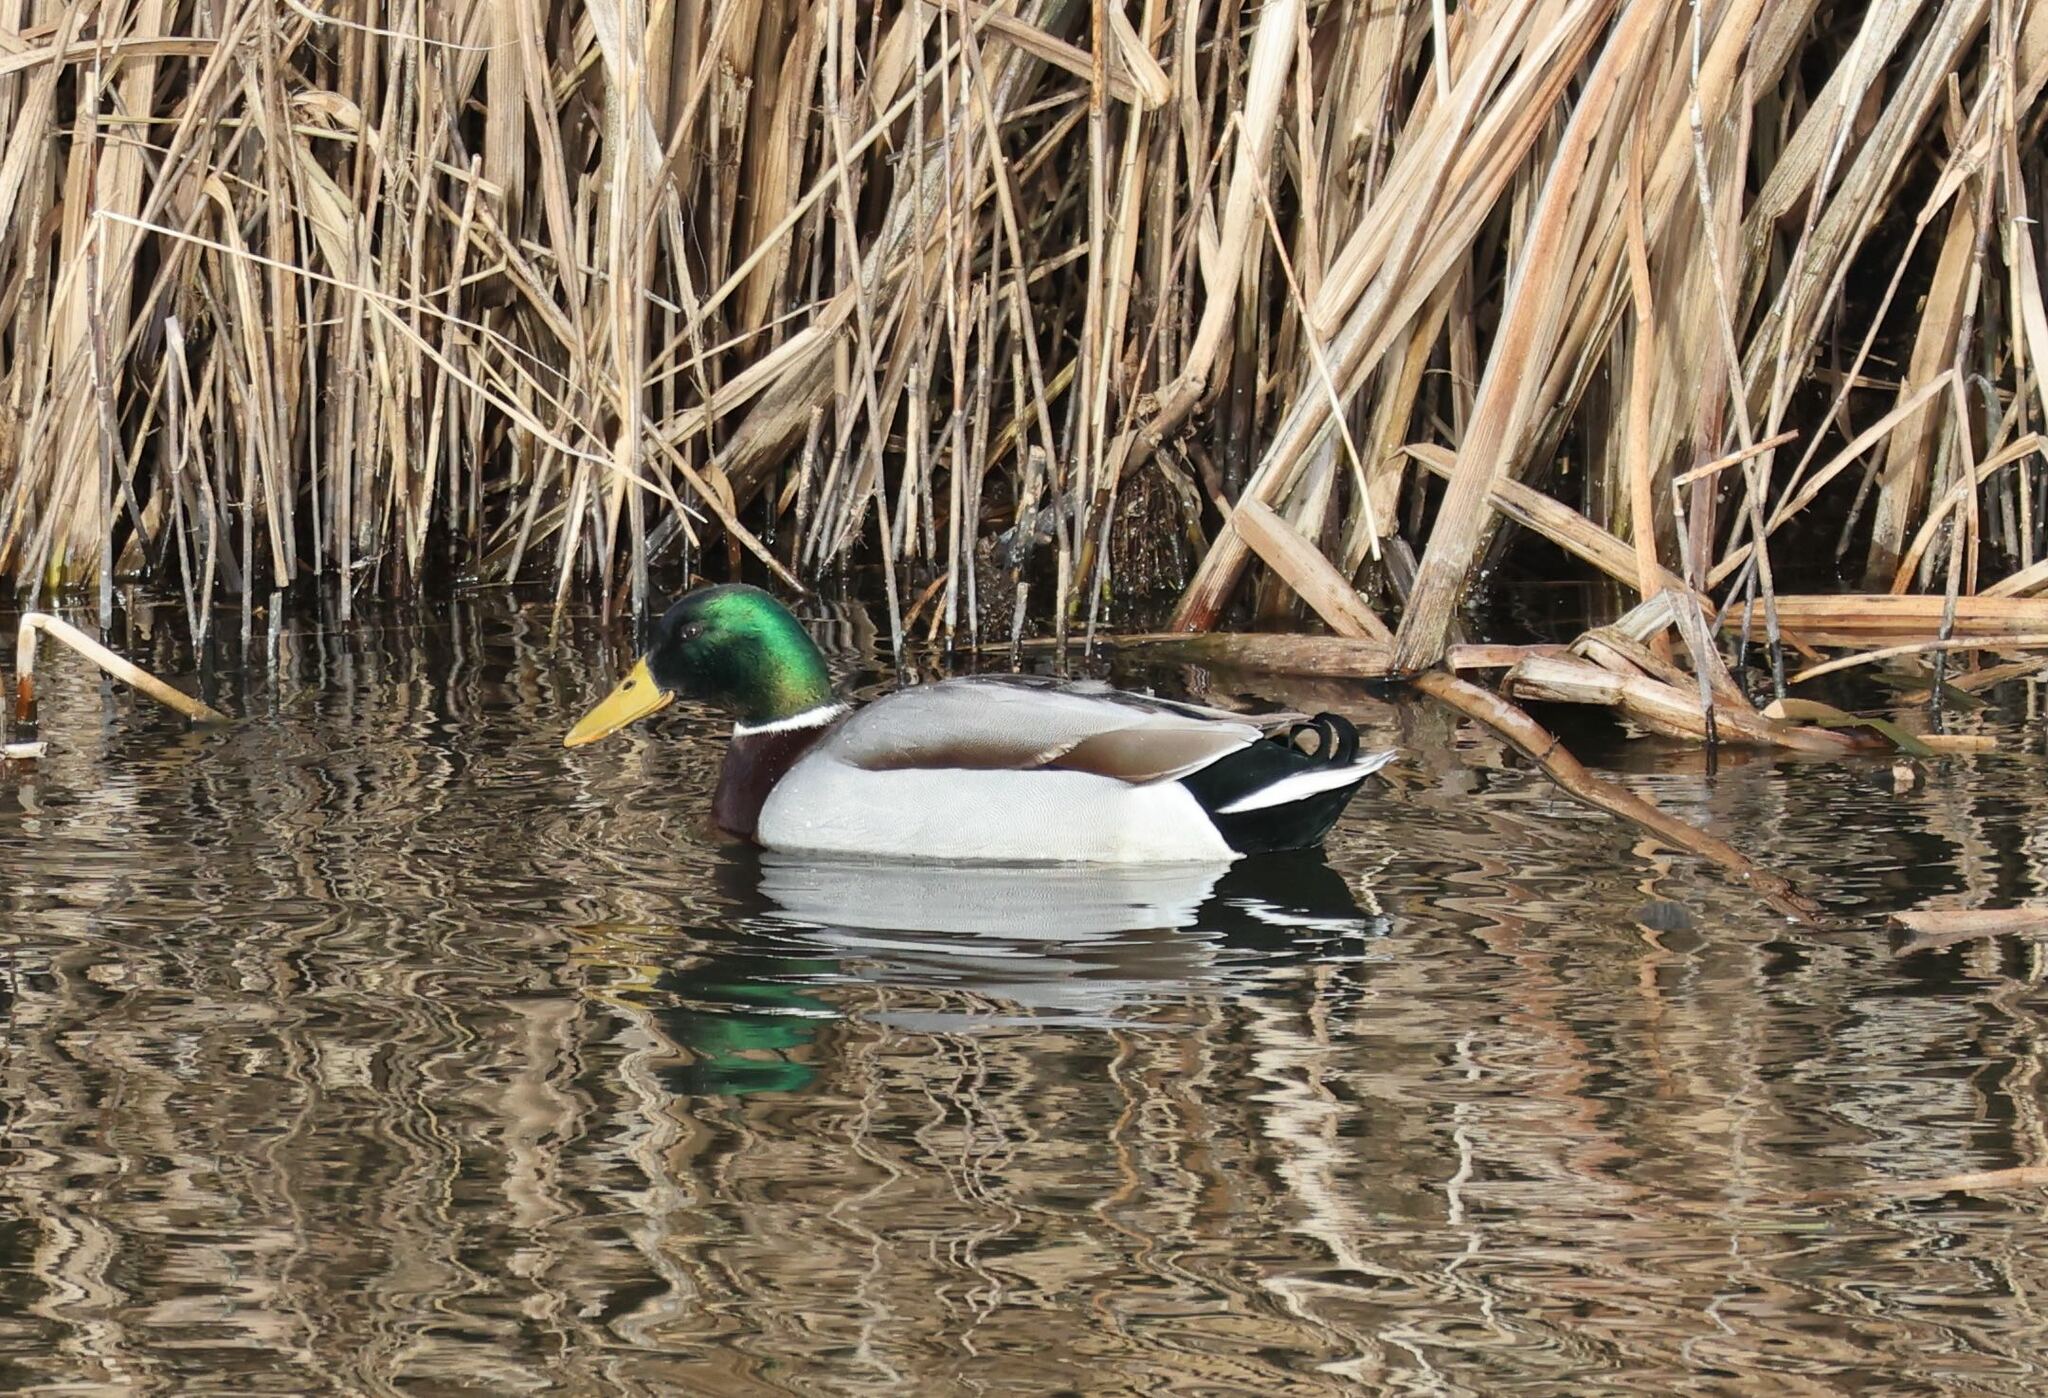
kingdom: Animalia
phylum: Chordata
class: Aves
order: Anseriformes
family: Anatidae
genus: Anas
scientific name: Anas platyrhynchos
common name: Mallard
